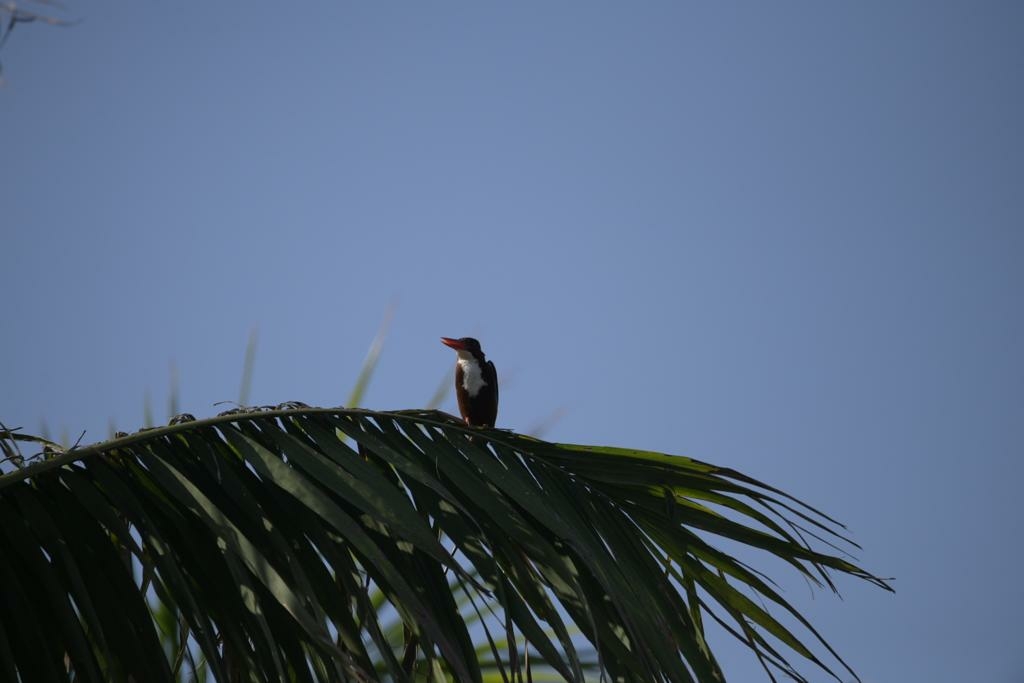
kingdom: Animalia
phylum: Chordata
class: Aves
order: Coraciiformes
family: Alcedinidae
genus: Halcyon
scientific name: Halcyon smyrnensis
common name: White-throated kingfisher
